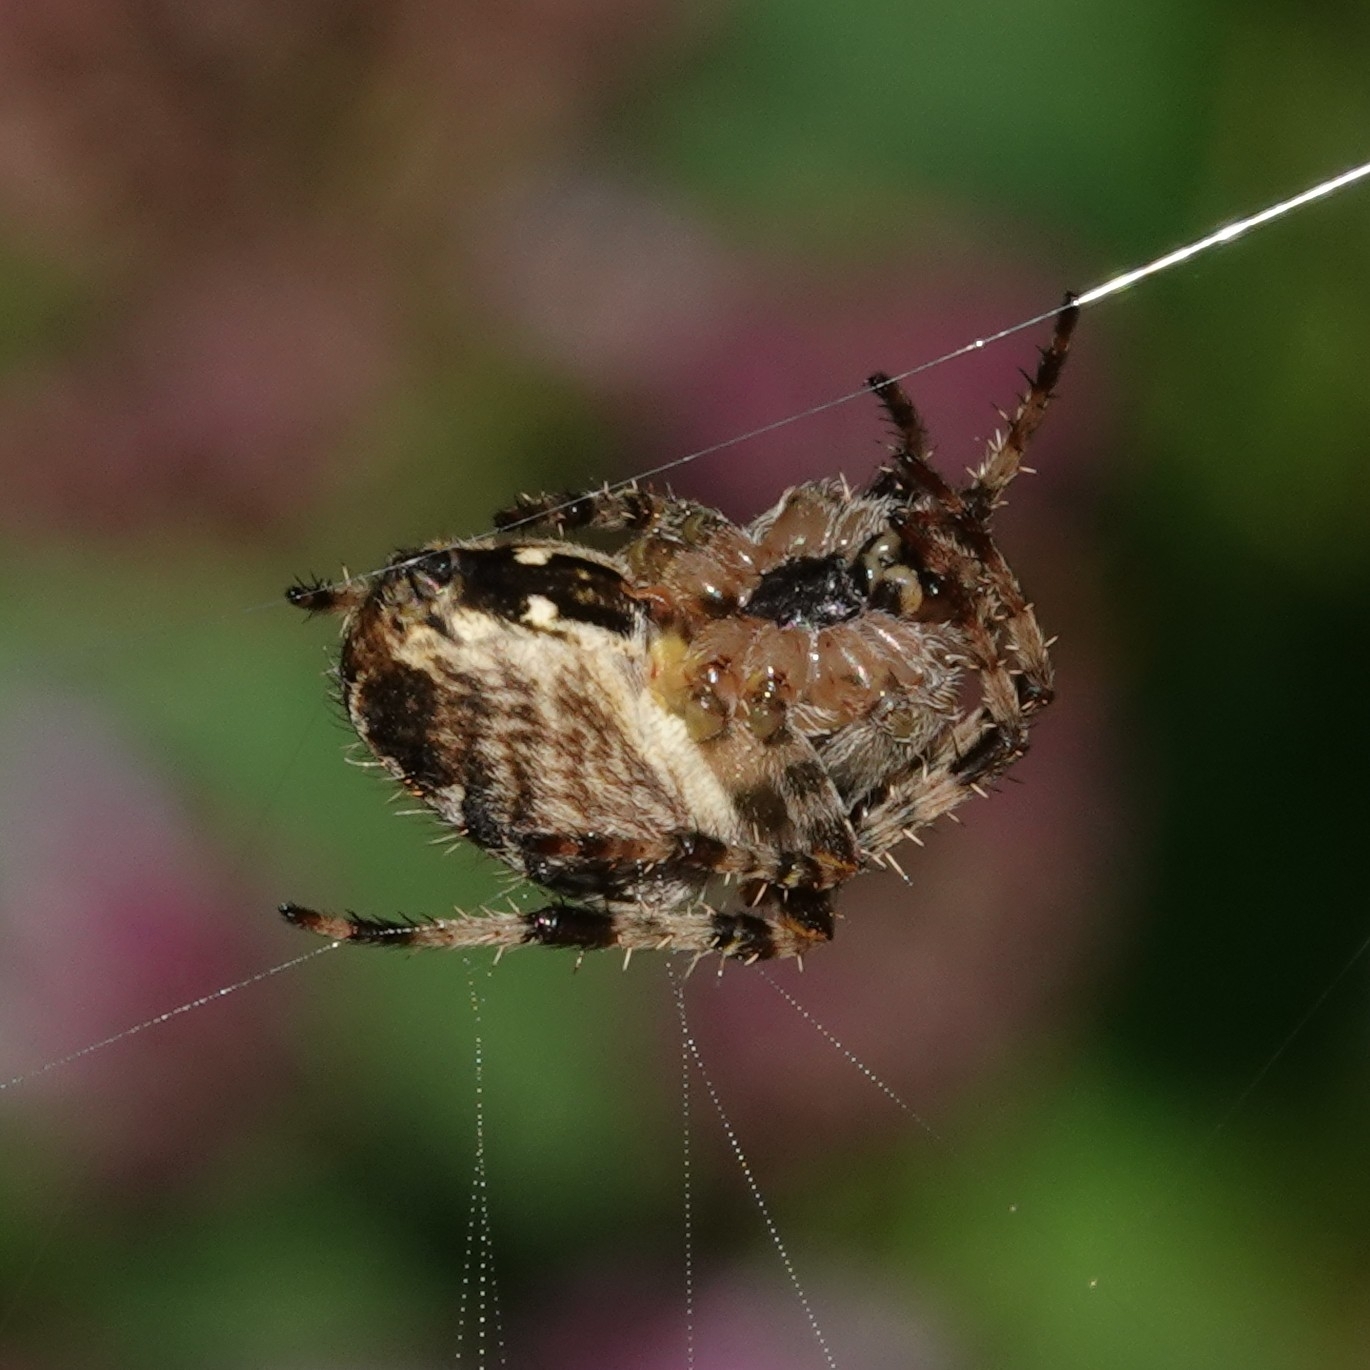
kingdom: Animalia
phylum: Arthropoda
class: Arachnida
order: Araneae
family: Araneidae
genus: Araneus
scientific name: Araneus diadematus
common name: Cross orbweaver
